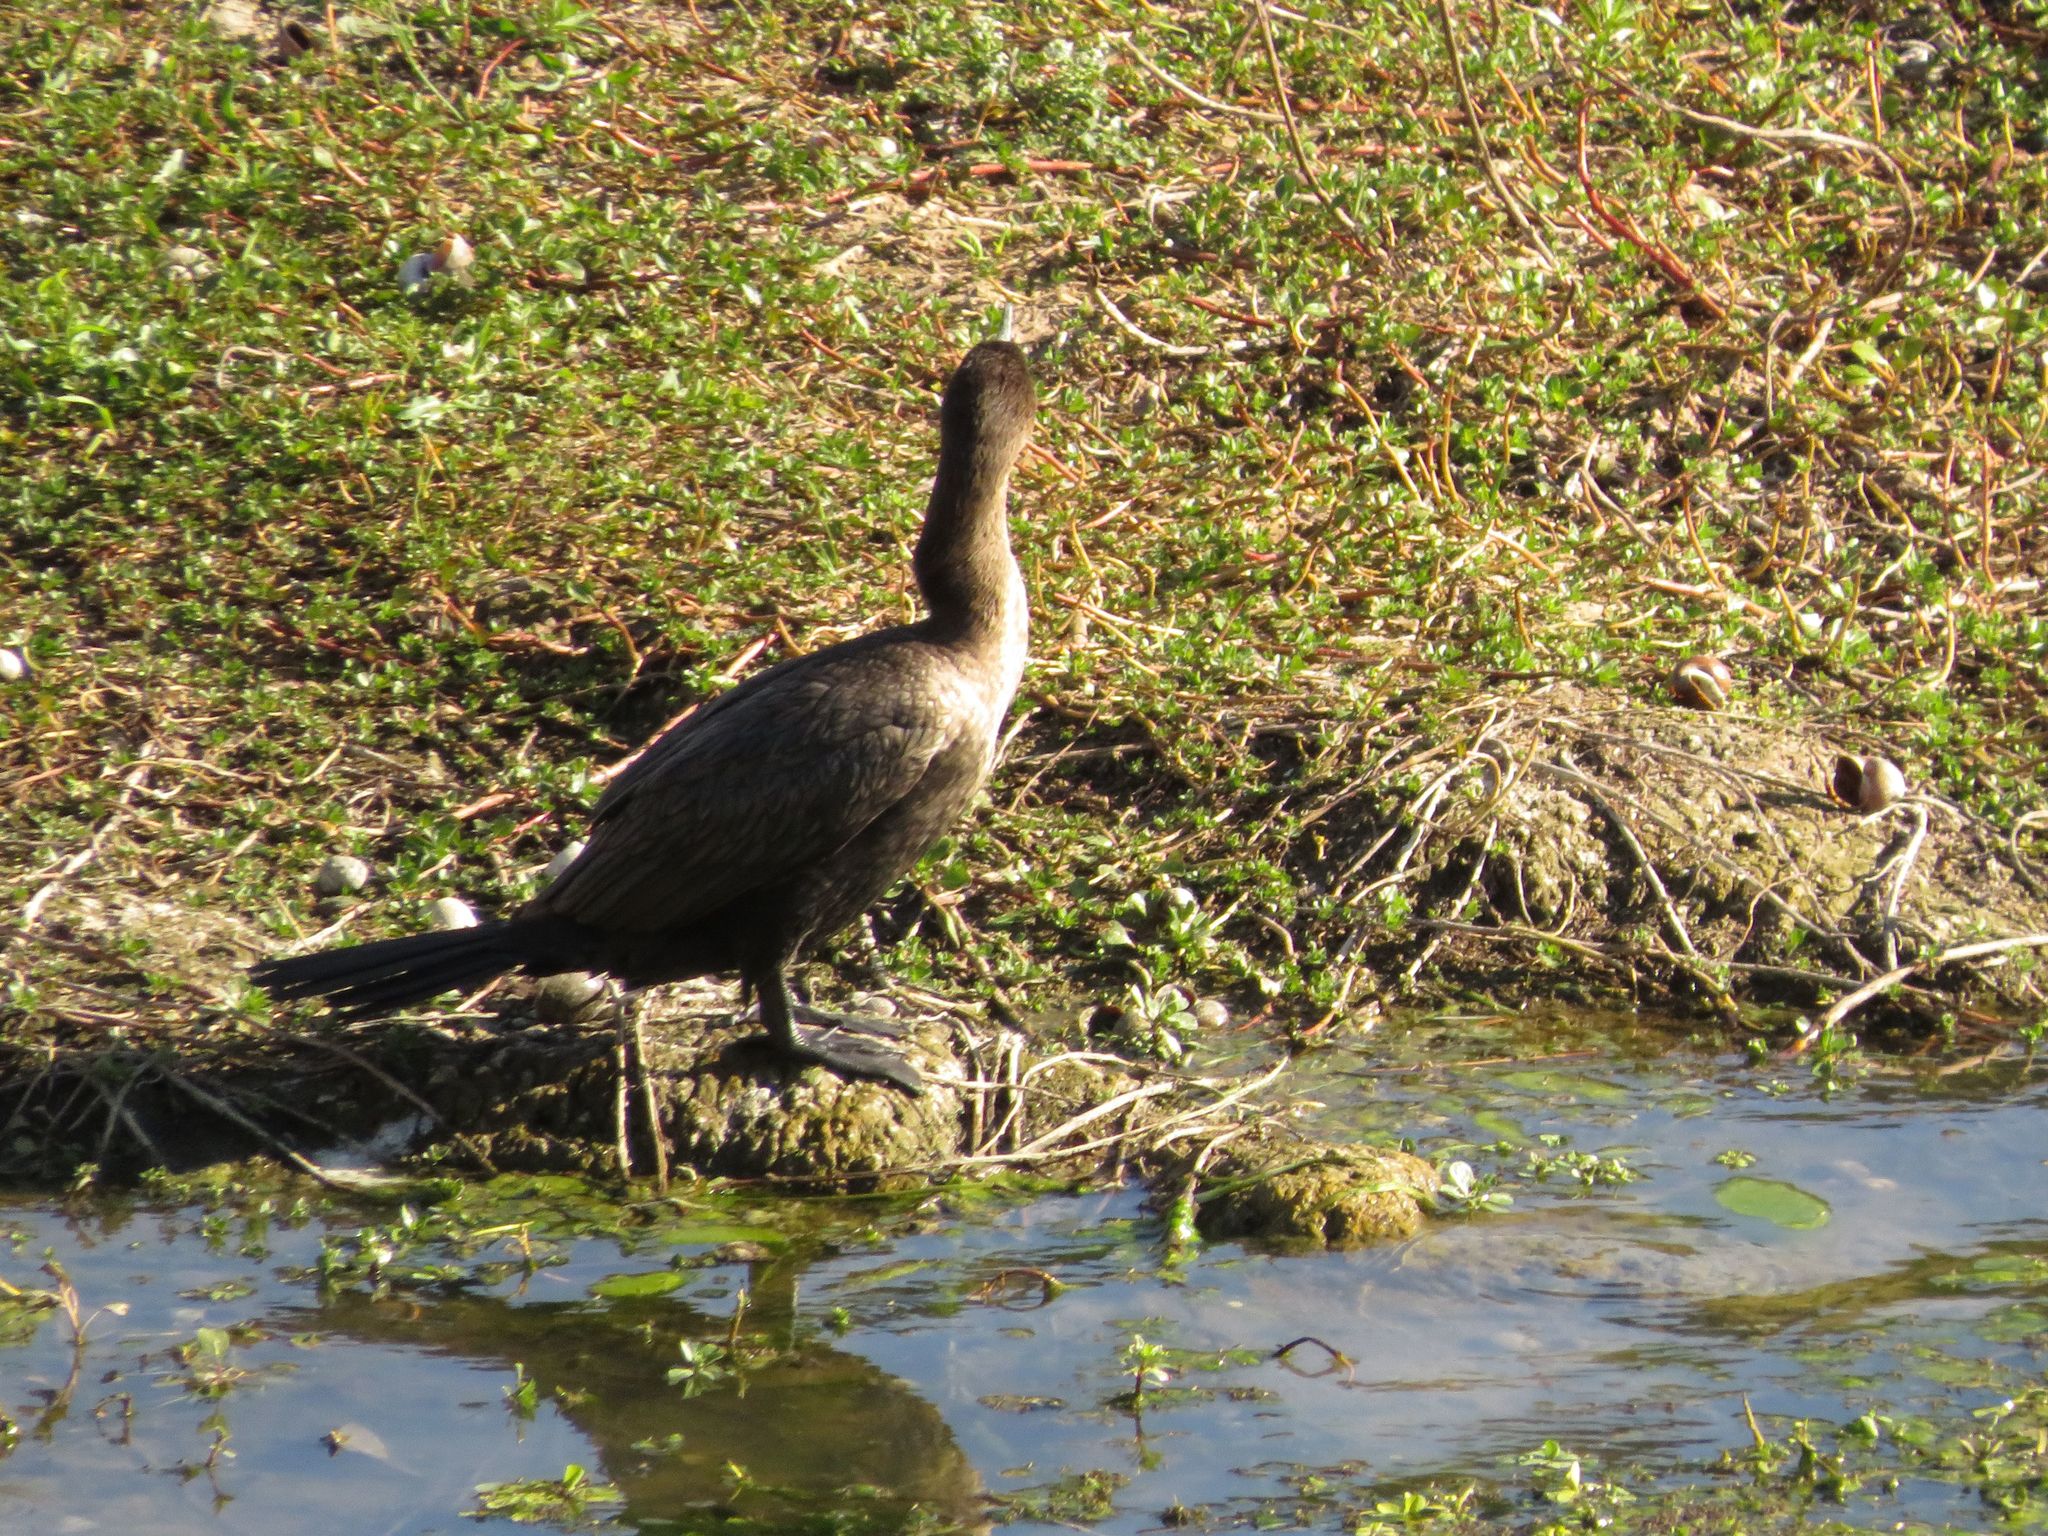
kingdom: Animalia
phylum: Chordata
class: Aves
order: Suliformes
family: Phalacrocoracidae
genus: Phalacrocorax
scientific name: Phalacrocorax brasilianus
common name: Neotropic cormorant
